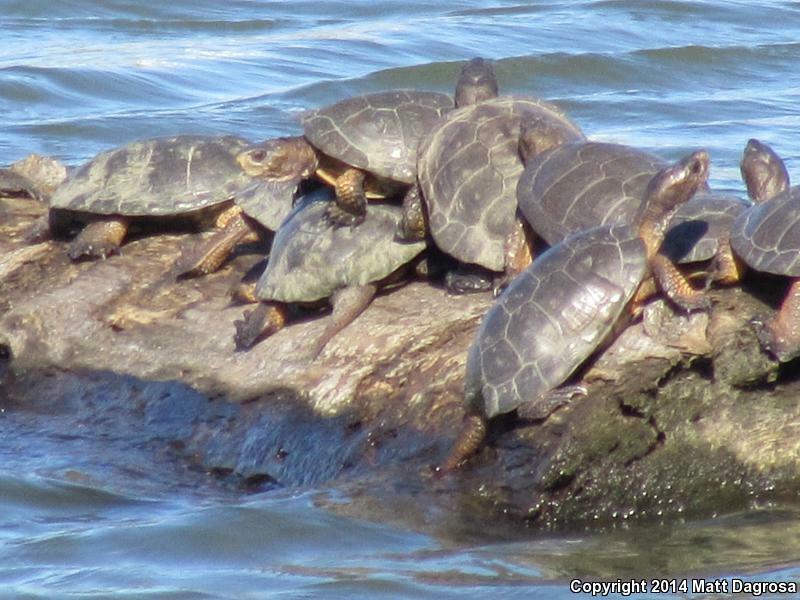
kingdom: Animalia
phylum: Chordata
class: Testudines
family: Emydidae
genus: Actinemys
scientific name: Actinemys marmorata
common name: Western pond turtle
